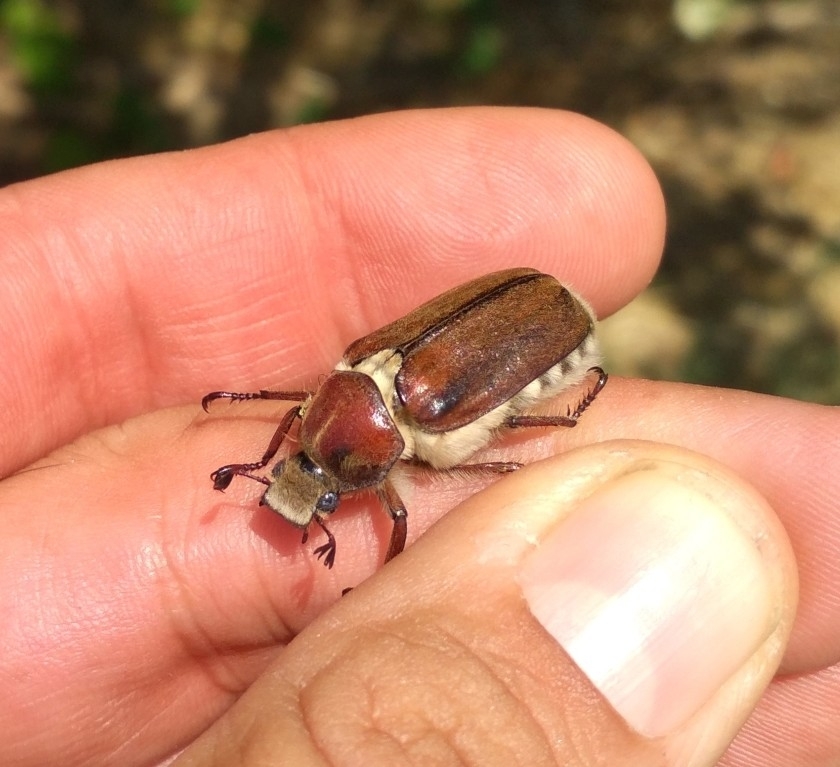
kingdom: Animalia
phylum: Arthropoda
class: Insecta
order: Coleoptera
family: Scarabaeidae
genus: Anoxia
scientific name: Anoxia villosa
